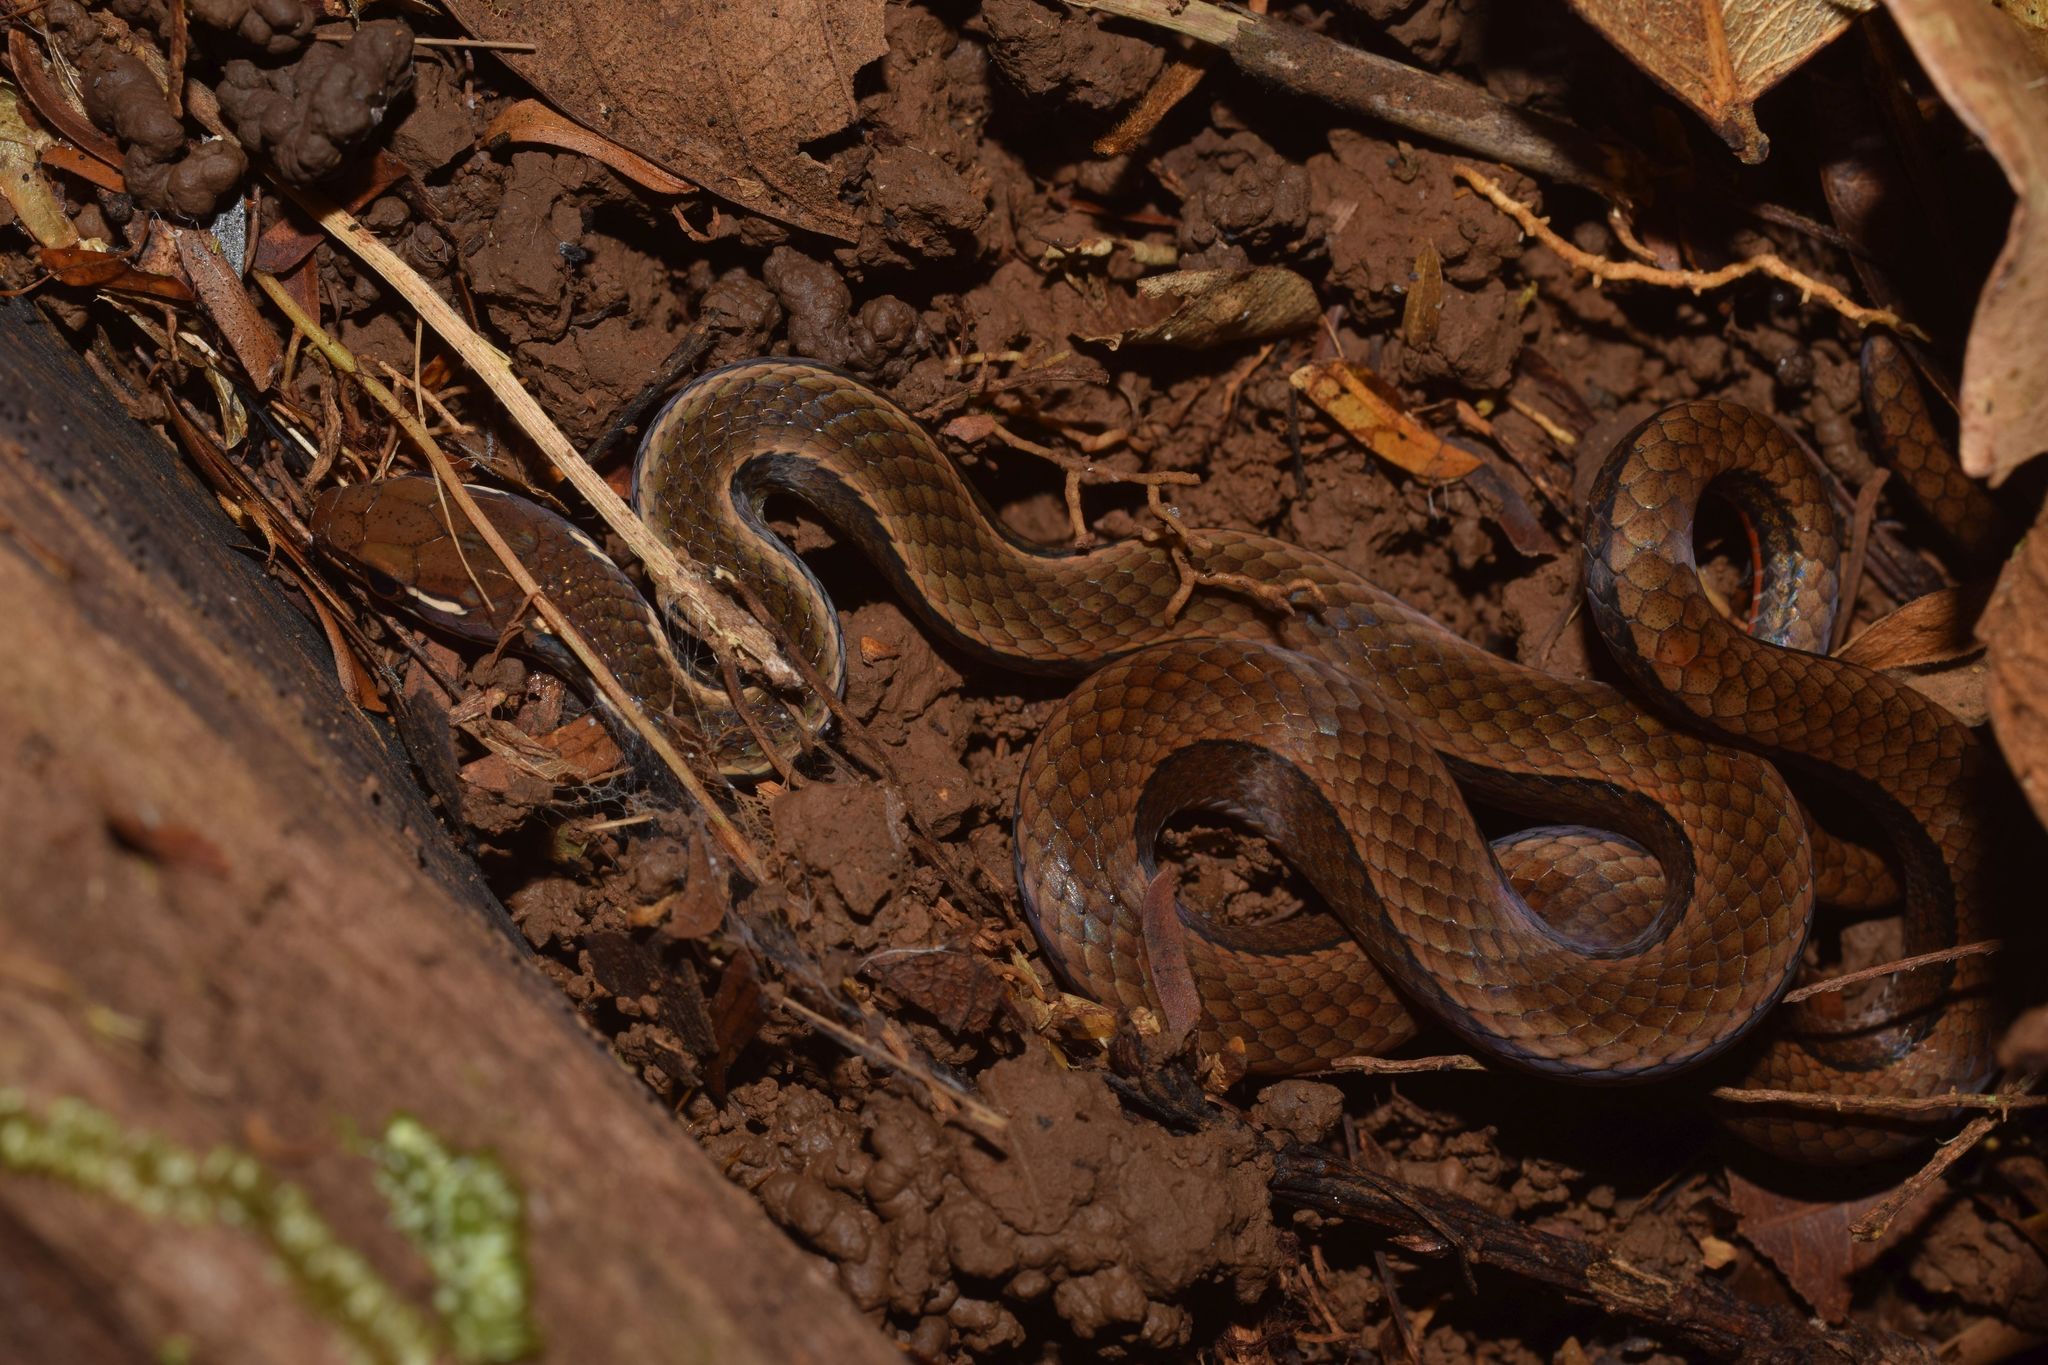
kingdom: Animalia
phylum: Chordata
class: Squamata
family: Colubridae
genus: Rhadinaea
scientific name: Rhadinaea decorata
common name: Adorned graceful brown snake
